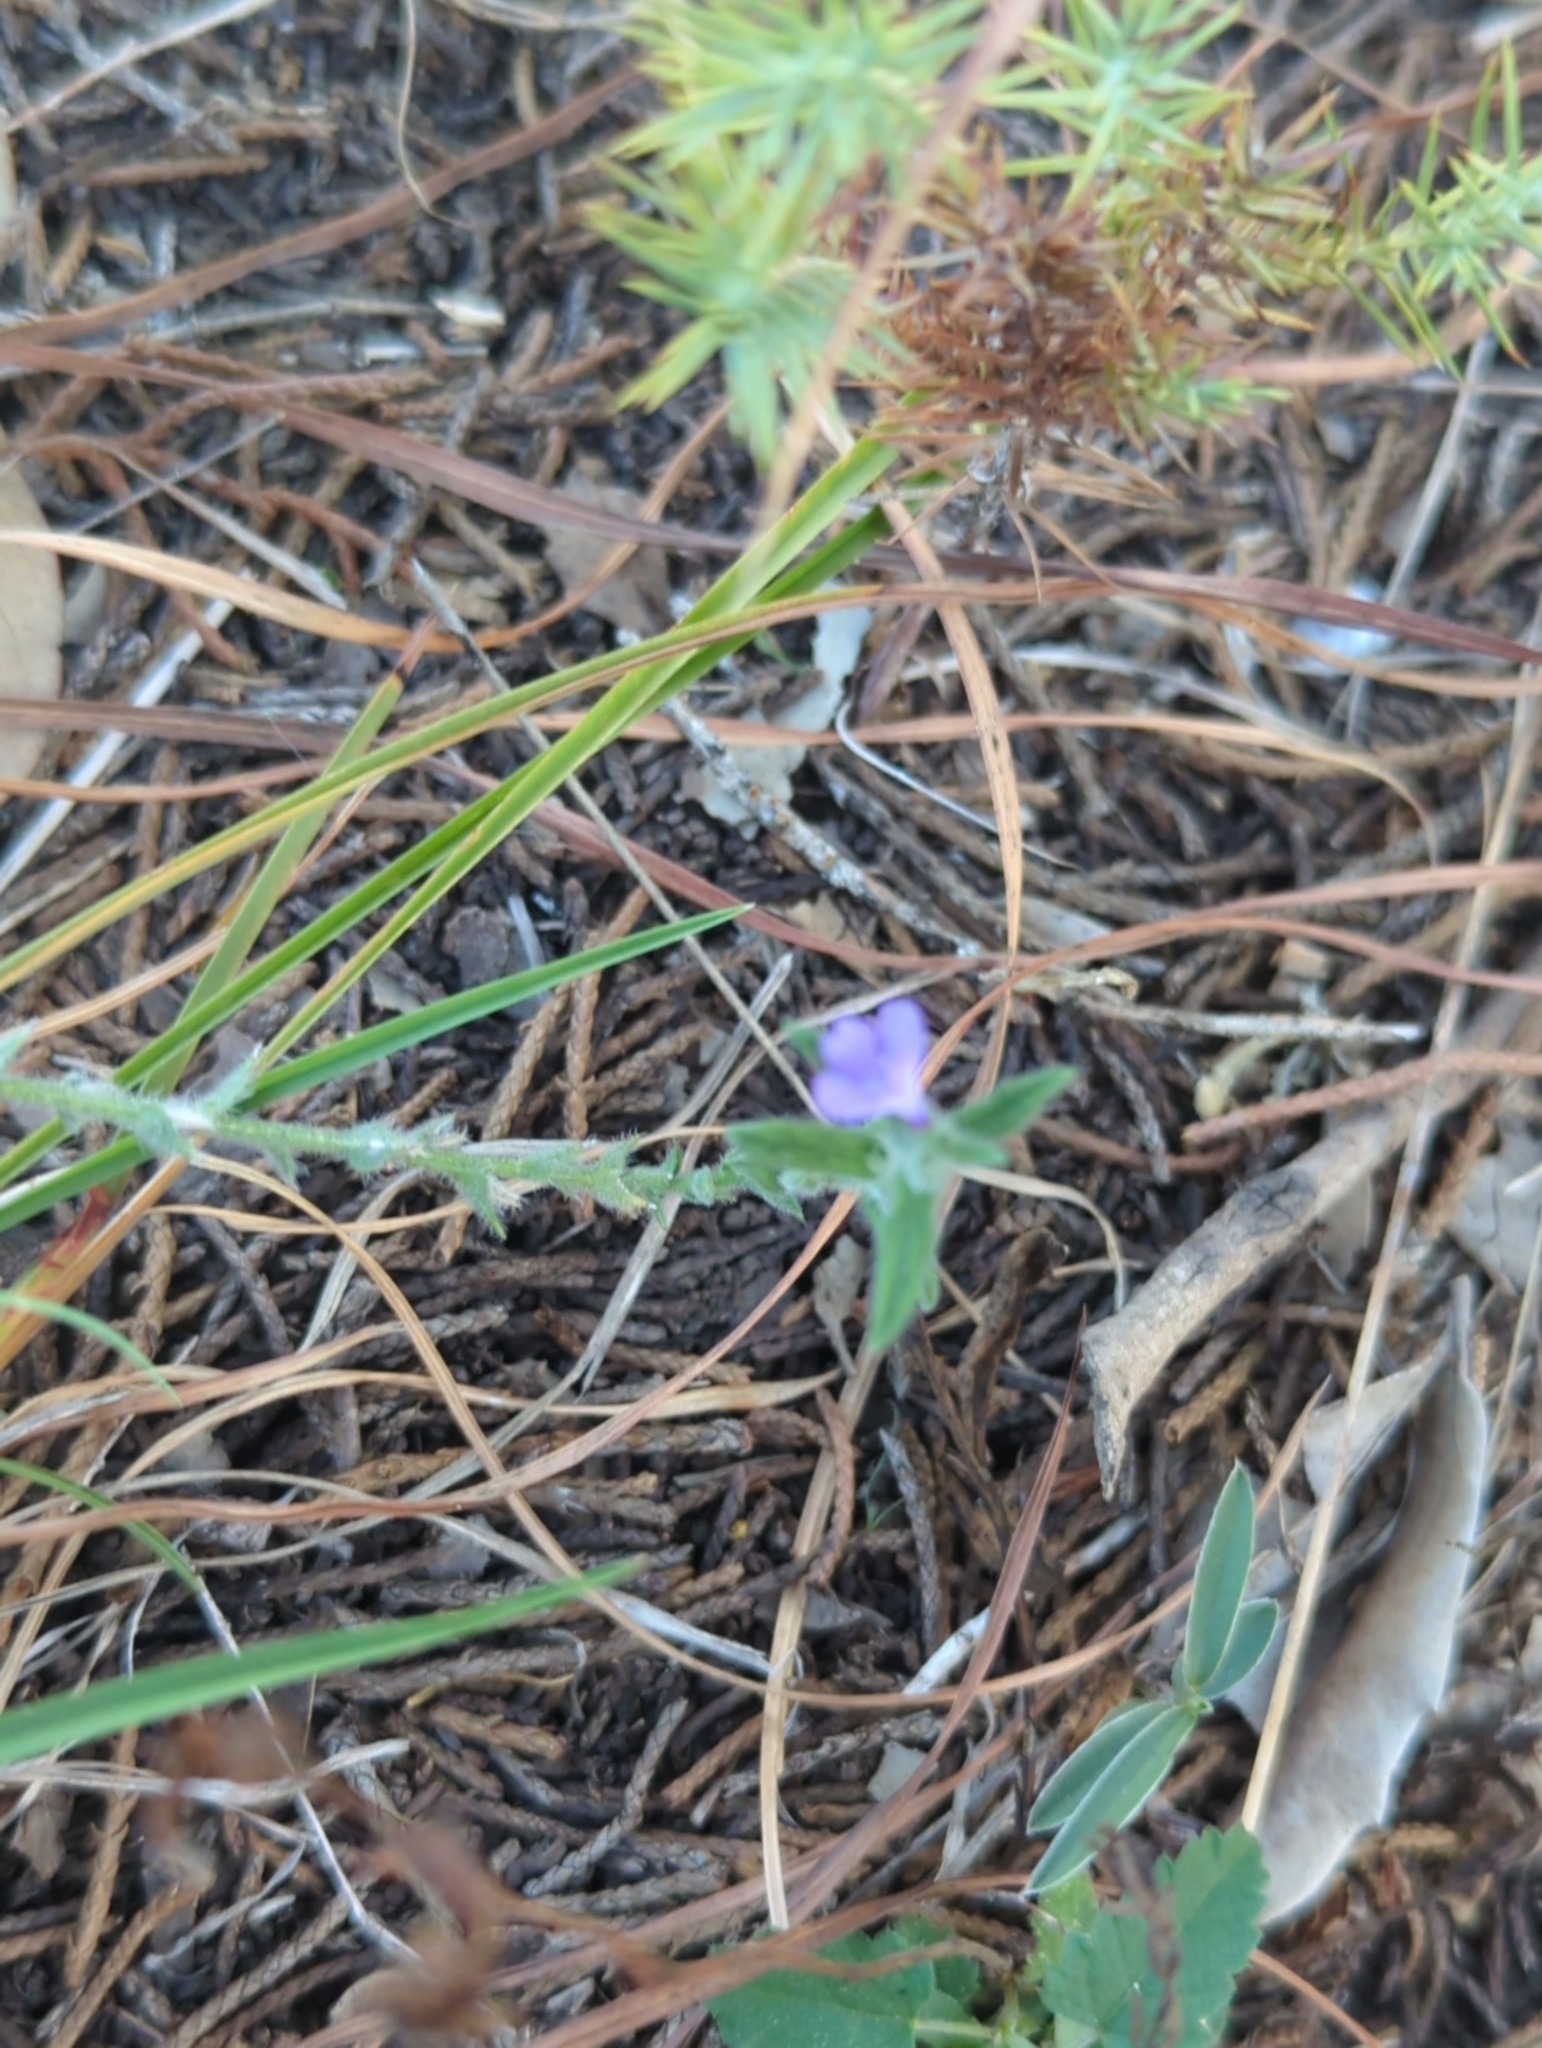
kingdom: Plantae
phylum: Tracheophyta
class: Magnoliopsida
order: Lamiales
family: Verbenaceae
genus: Verbena
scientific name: Verbena canescens
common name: Gray vervain
